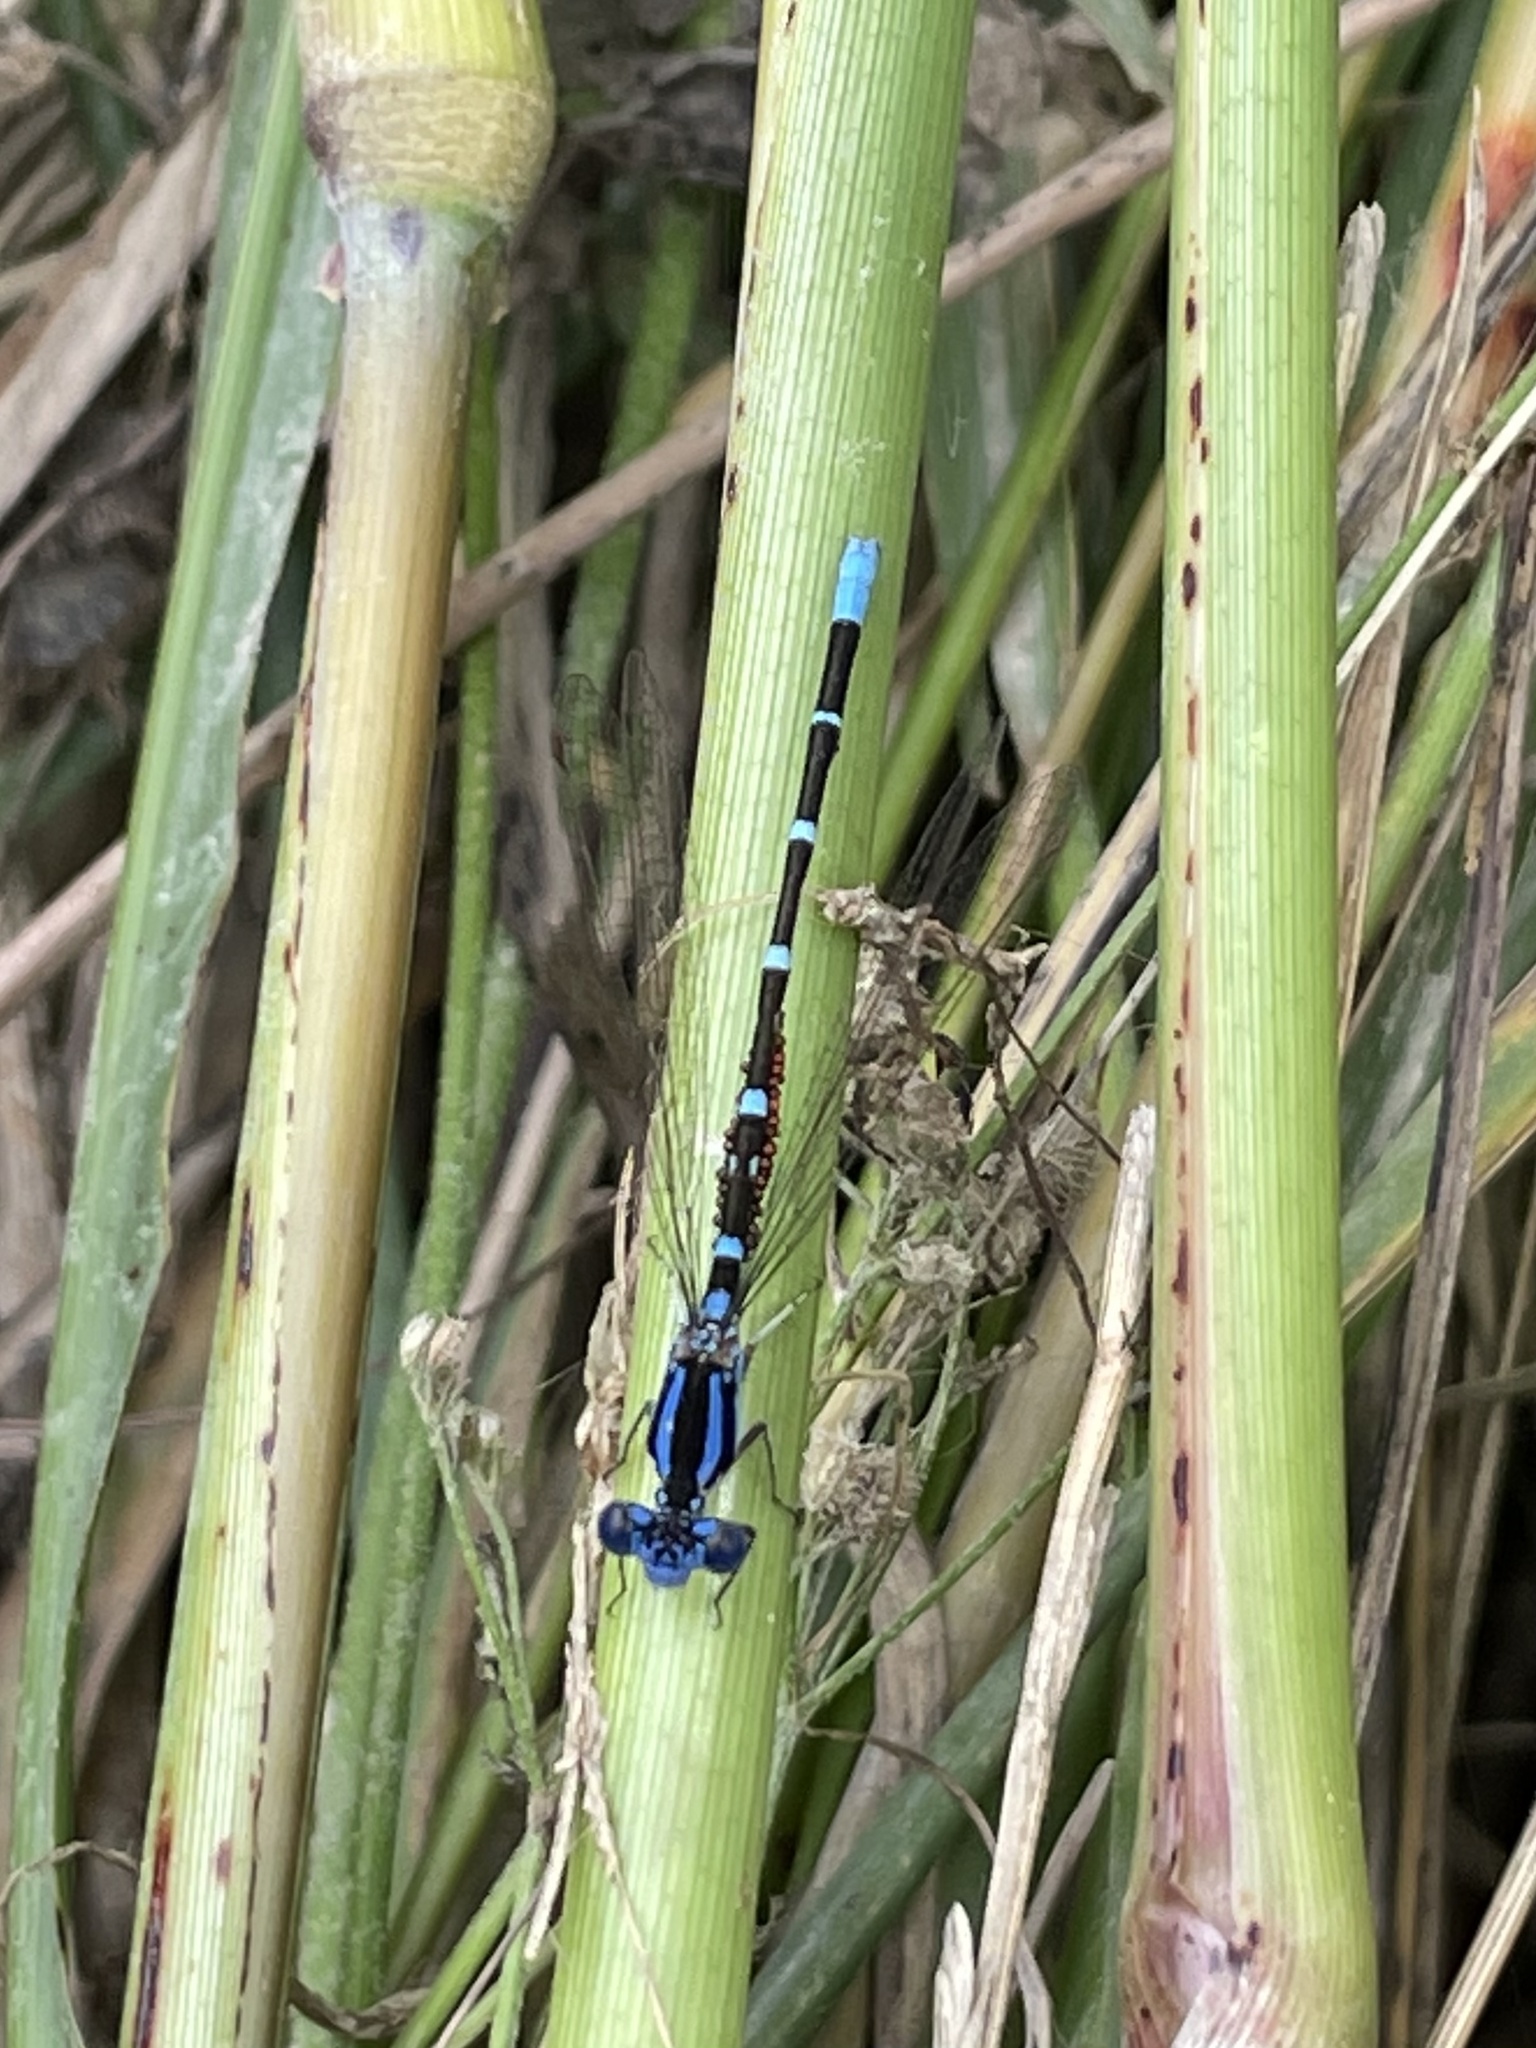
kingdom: Animalia
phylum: Arthropoda
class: Insecta
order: Odonata
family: Coenagrionidae
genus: Argia
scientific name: Argia sedula
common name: Blue-ringed dancer
